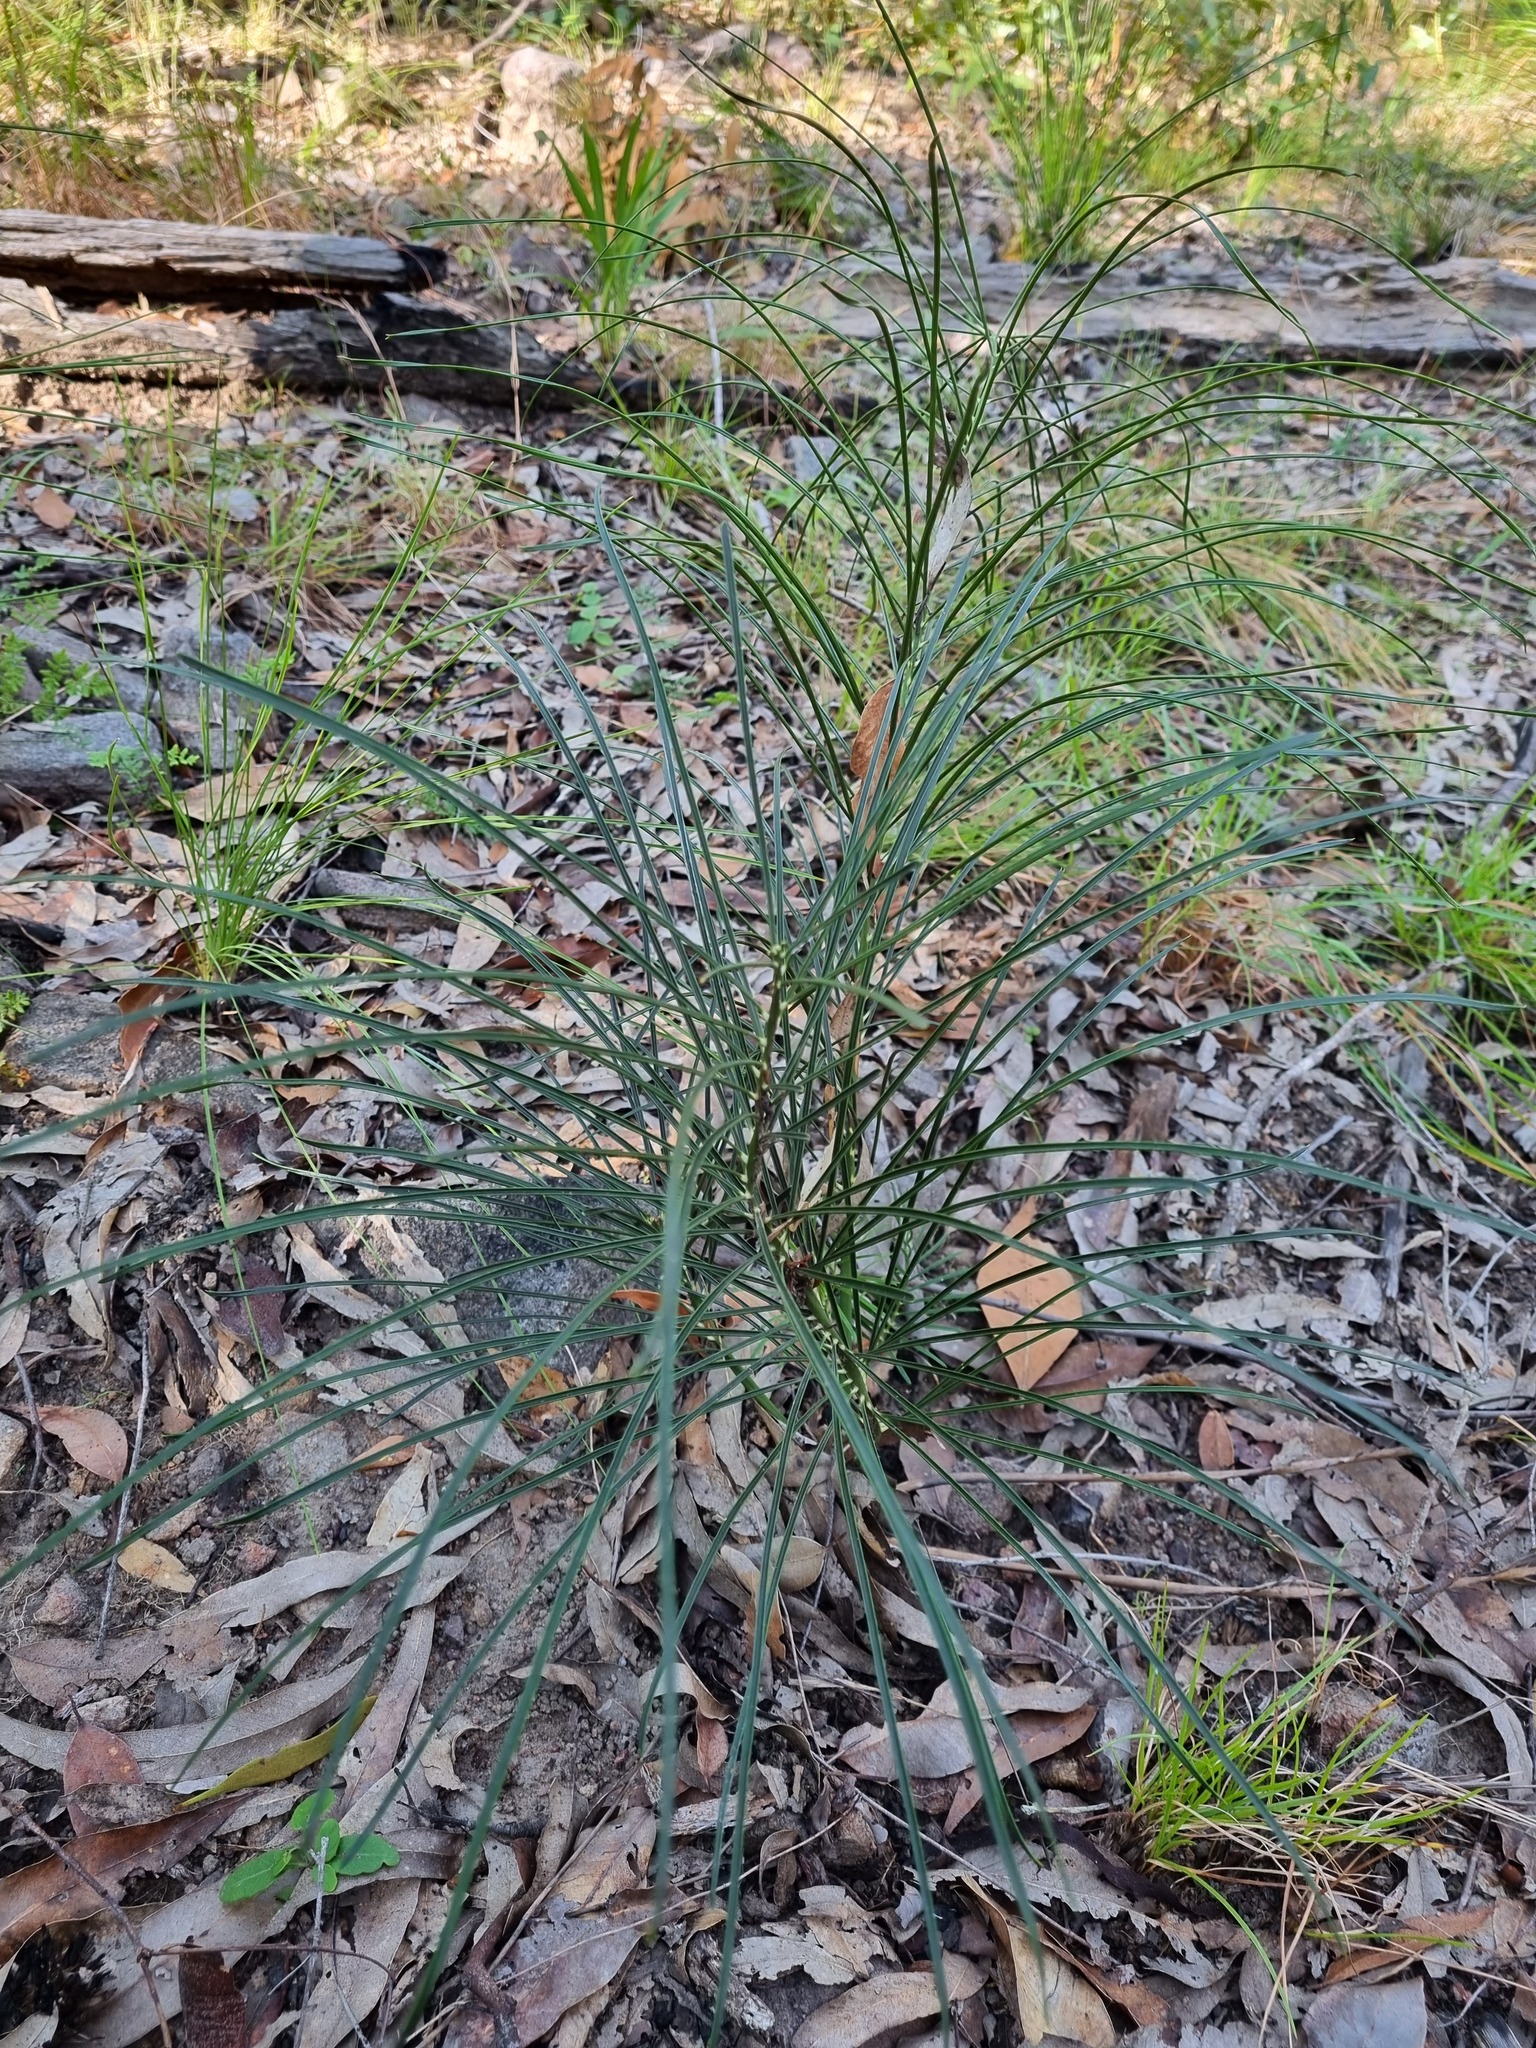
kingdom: Plantae
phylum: Tracheophyta
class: Cycadopsida
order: Cycadales
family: Zamiaceae
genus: Macrozamia
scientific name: Macrozamia pauli-guilielmi
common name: Pineapple zamia
